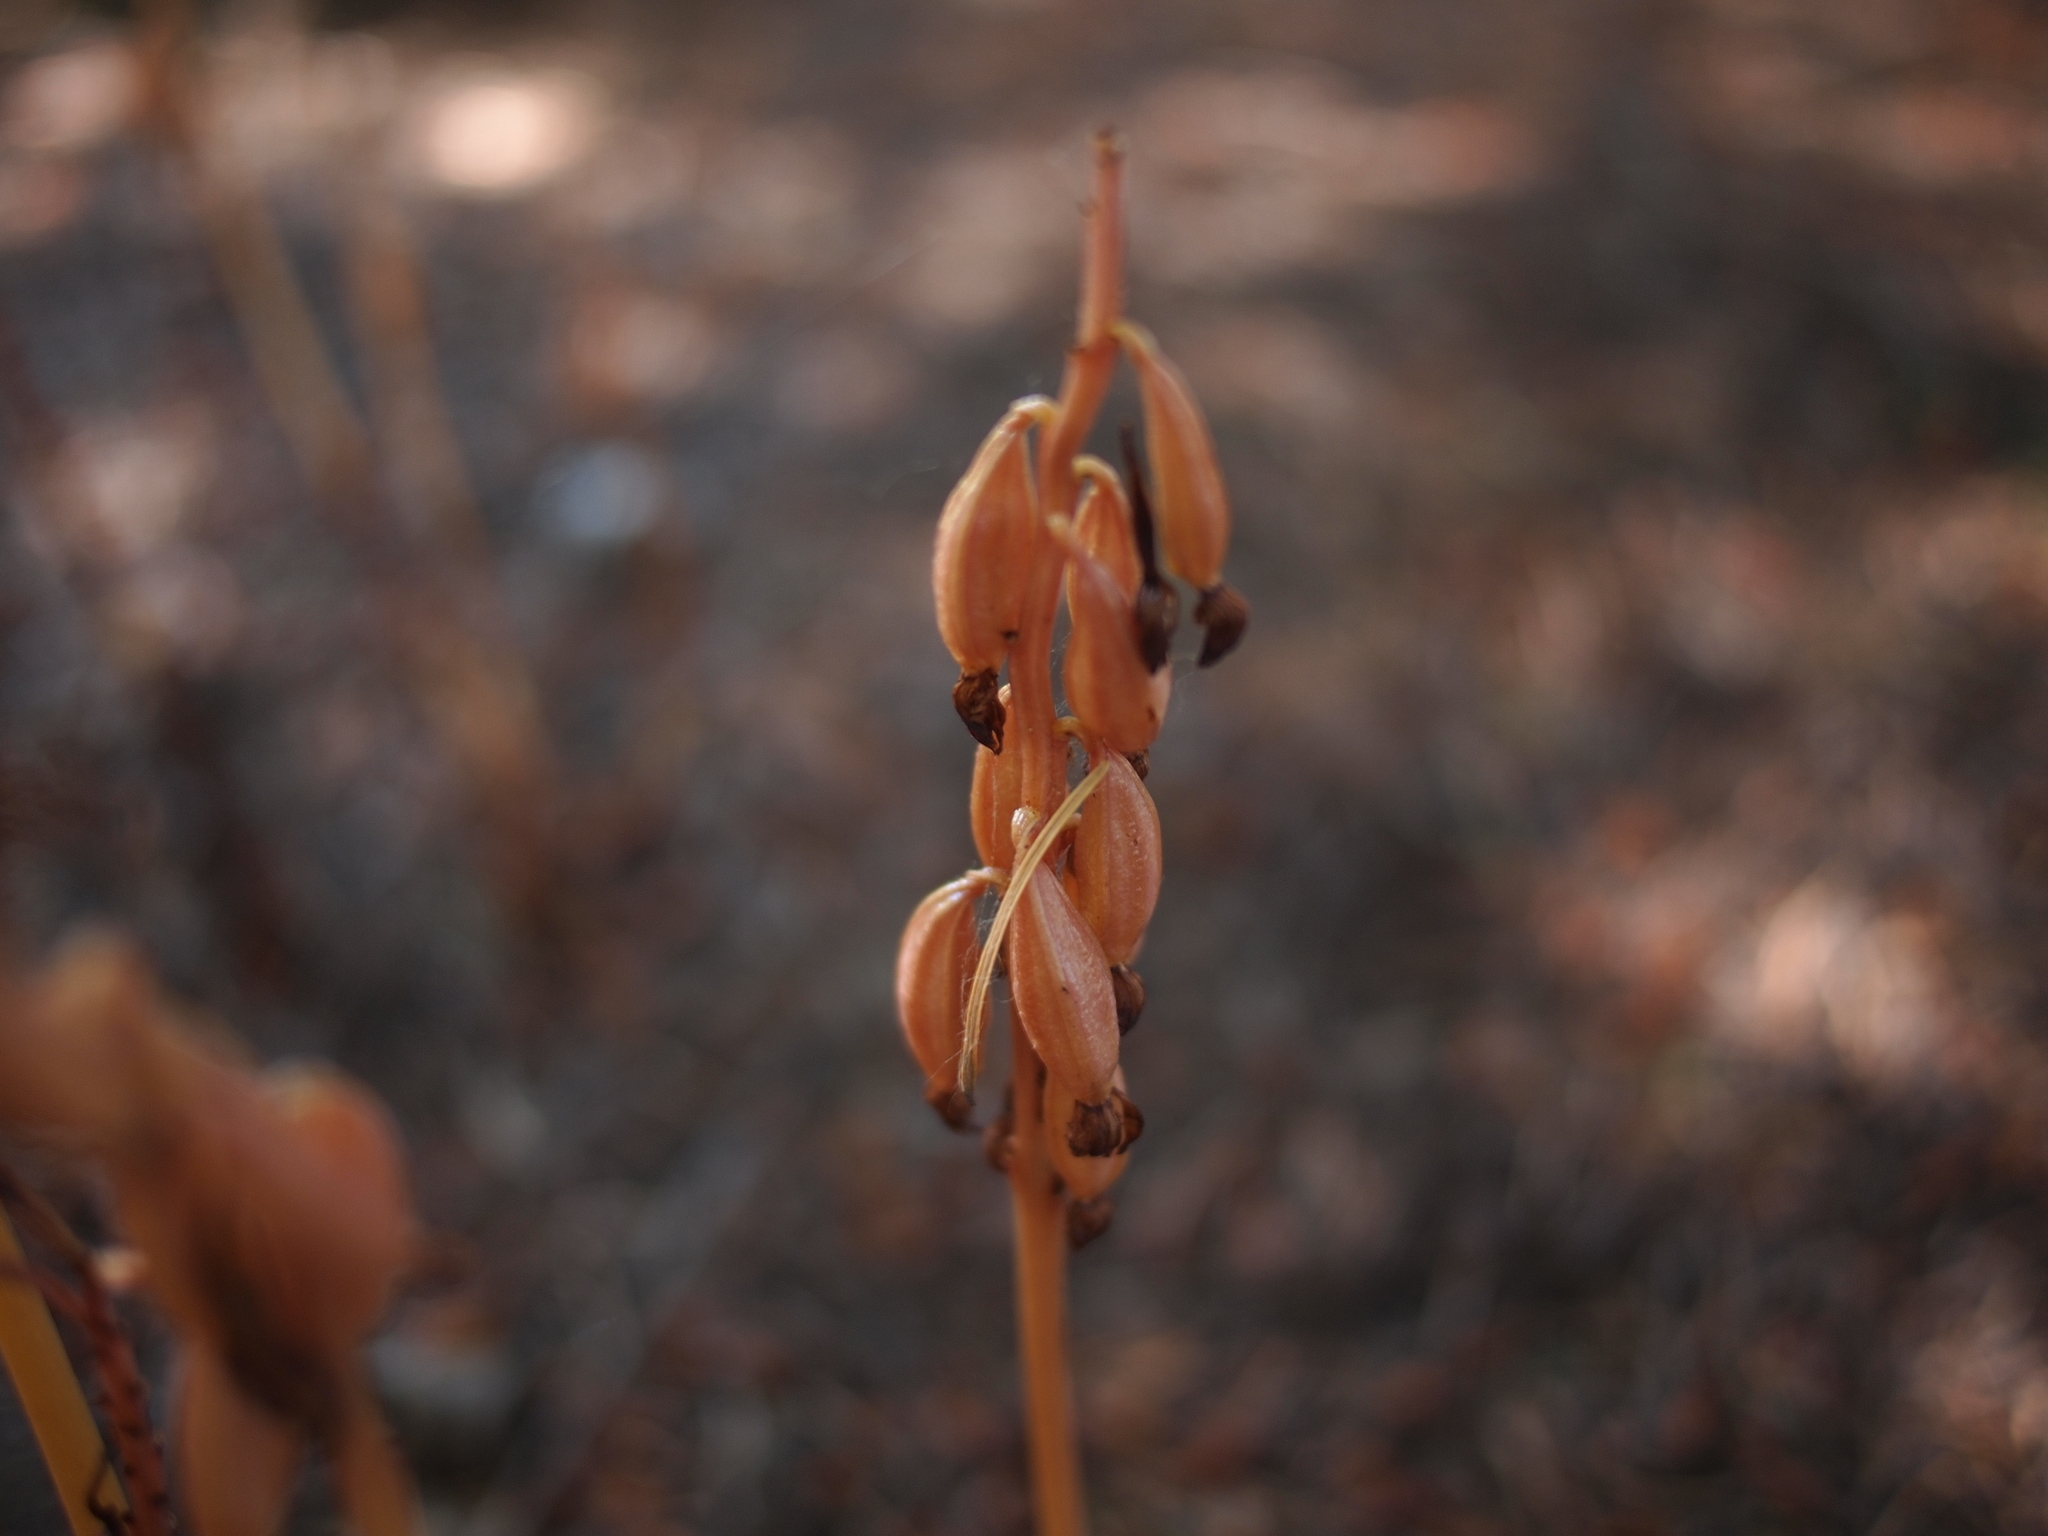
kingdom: Plantae
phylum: Tracheophyta
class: Liliopsida
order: Asparagales
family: Orchidaceae
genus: Corallorhiza
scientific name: Corallorhiza maculata
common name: Spotted coralroot
